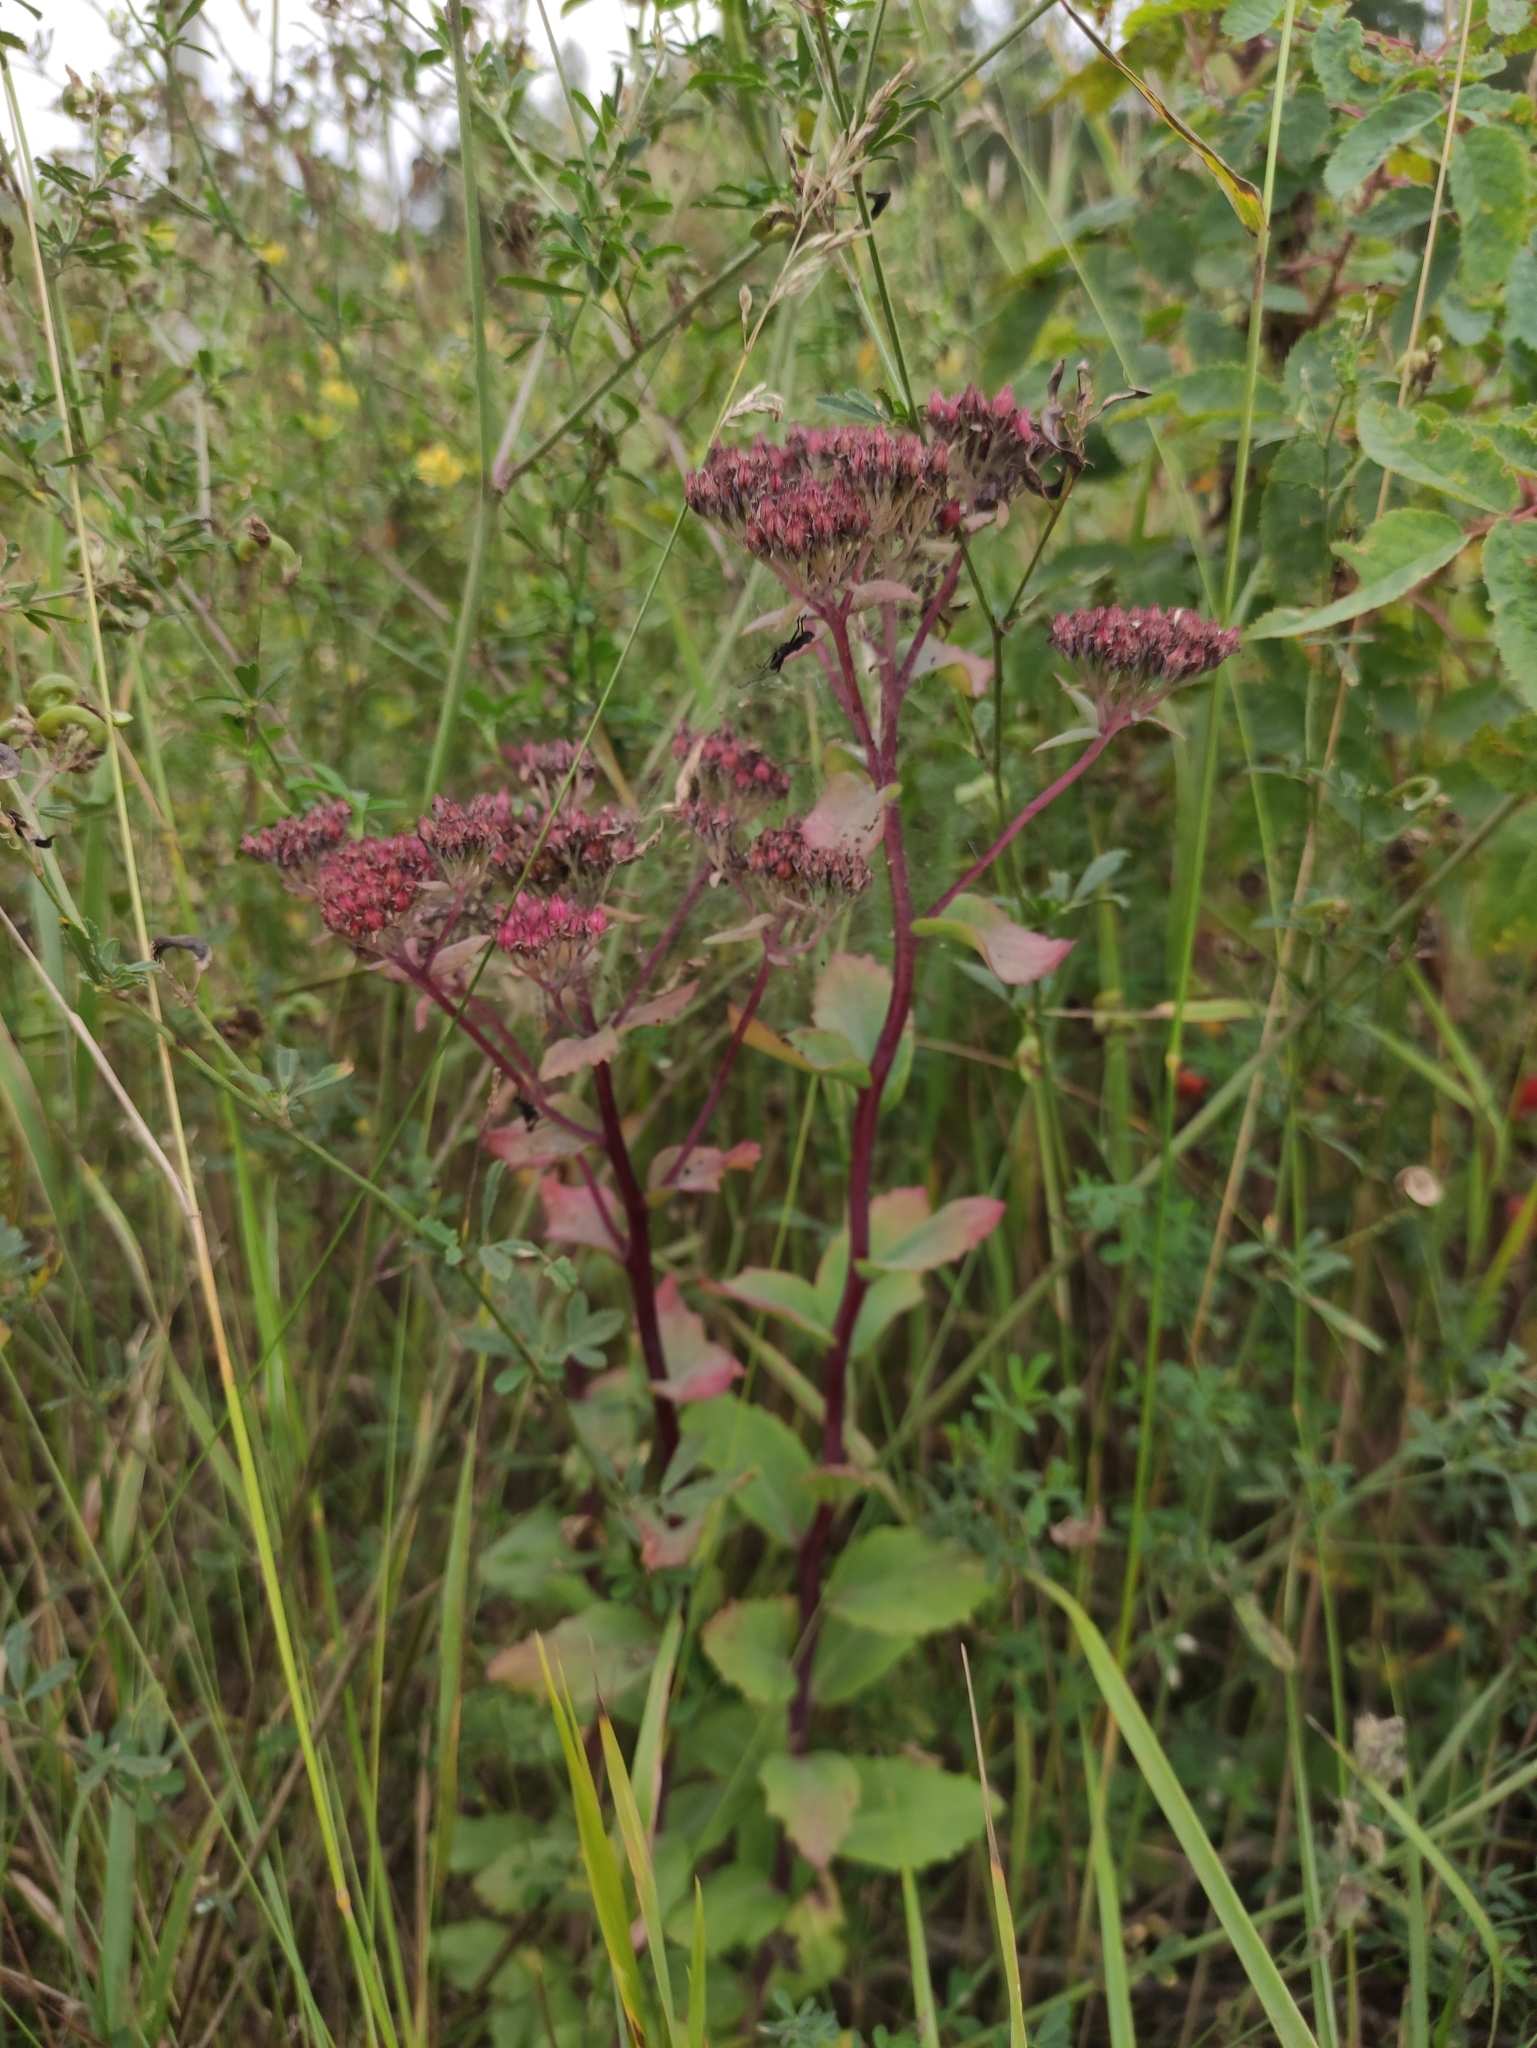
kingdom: Plantae
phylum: Tracheophyta
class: Magnoliopsida
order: Saxifragales
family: Crassulaceae
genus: Hylotelephium
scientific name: Hylotelephium telephium
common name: Live-forever
